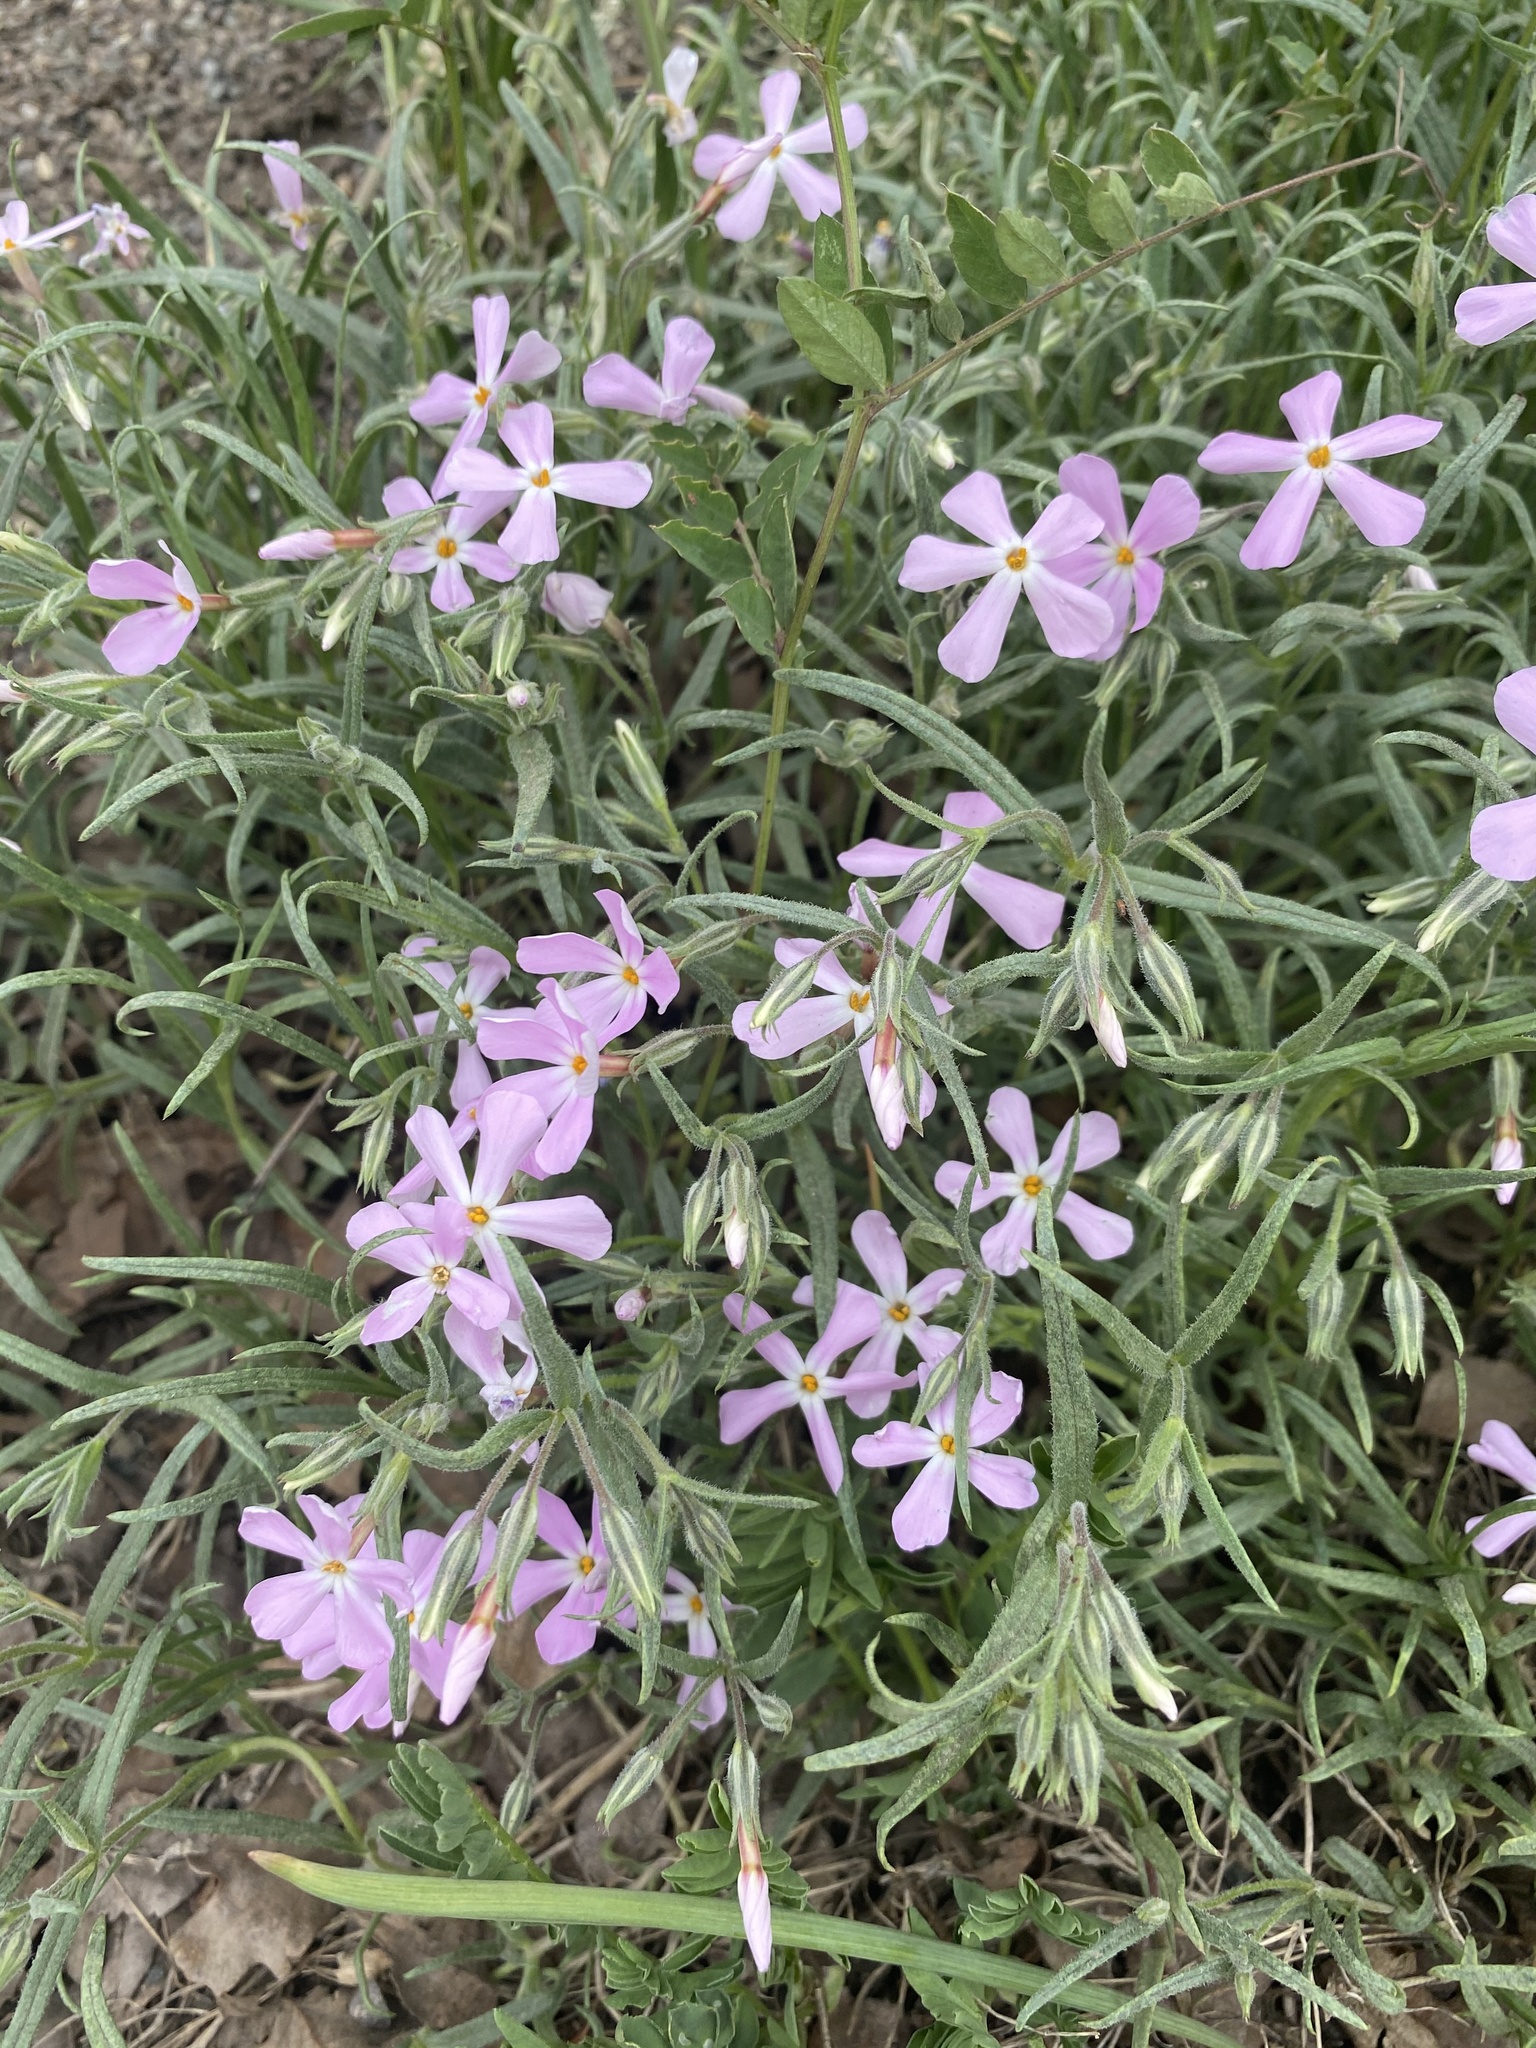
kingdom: Plantae
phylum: Tracheophyta
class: Magnoliopsida
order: Ericales
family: Polemoniaceae
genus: Phlox
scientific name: Phlox longifolia
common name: Longleaf phlox
